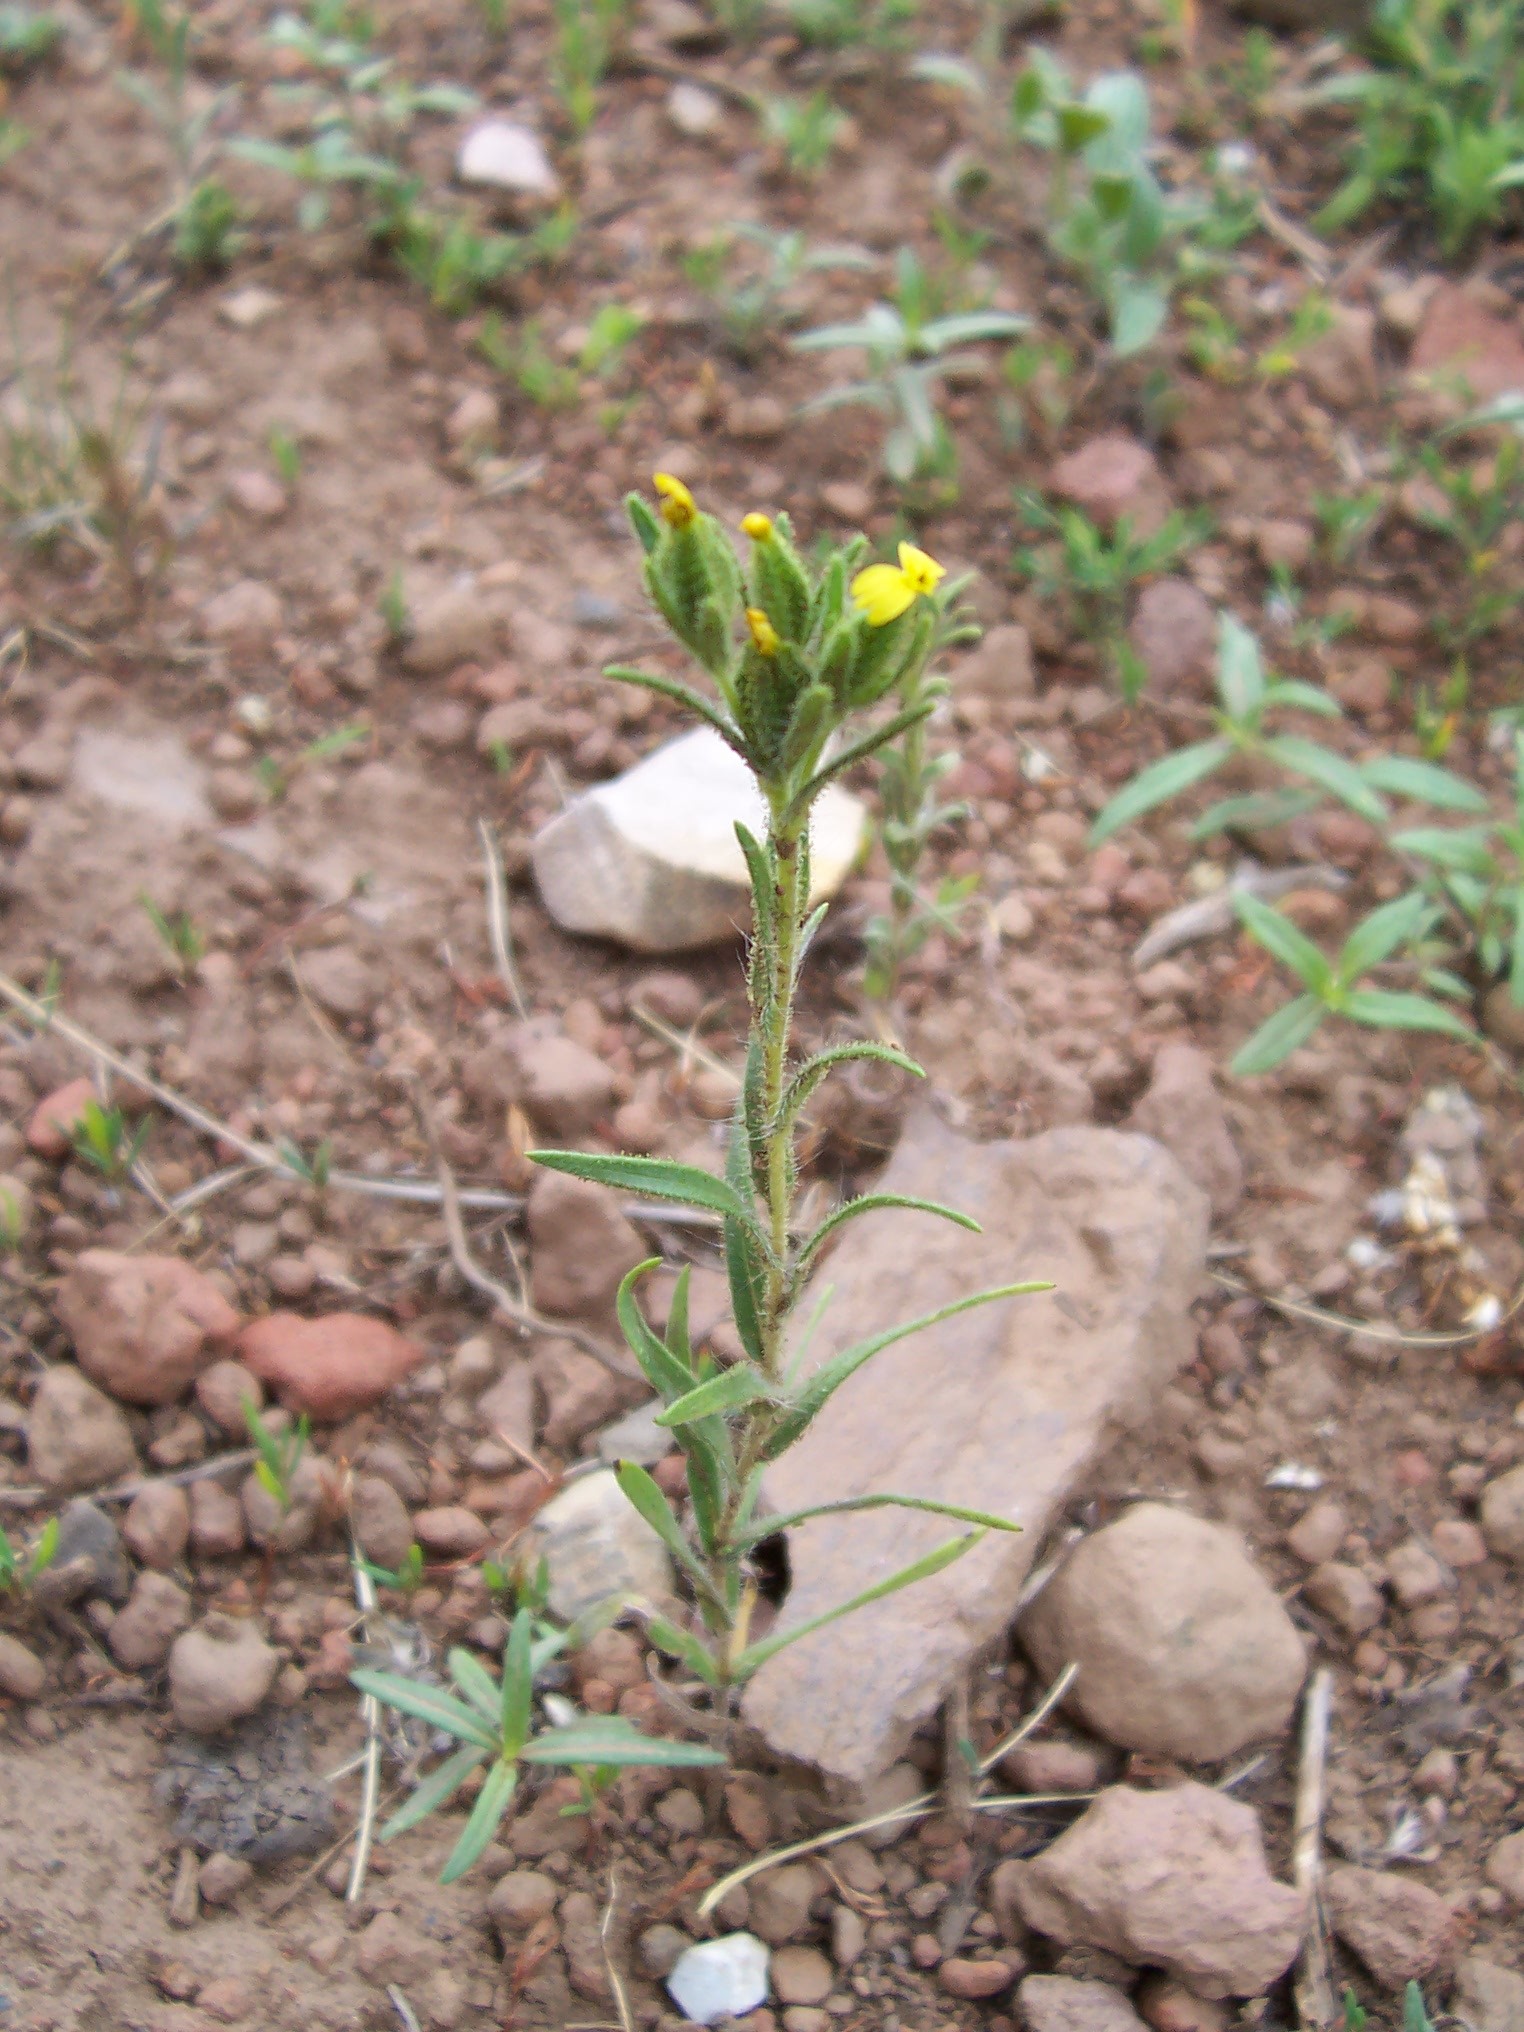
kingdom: Plantae
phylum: Tracheophyta
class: Magnoliopsida
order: Asterales
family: Asteraceae
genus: Madia
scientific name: Madia glomerata
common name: Mountain tarweed
